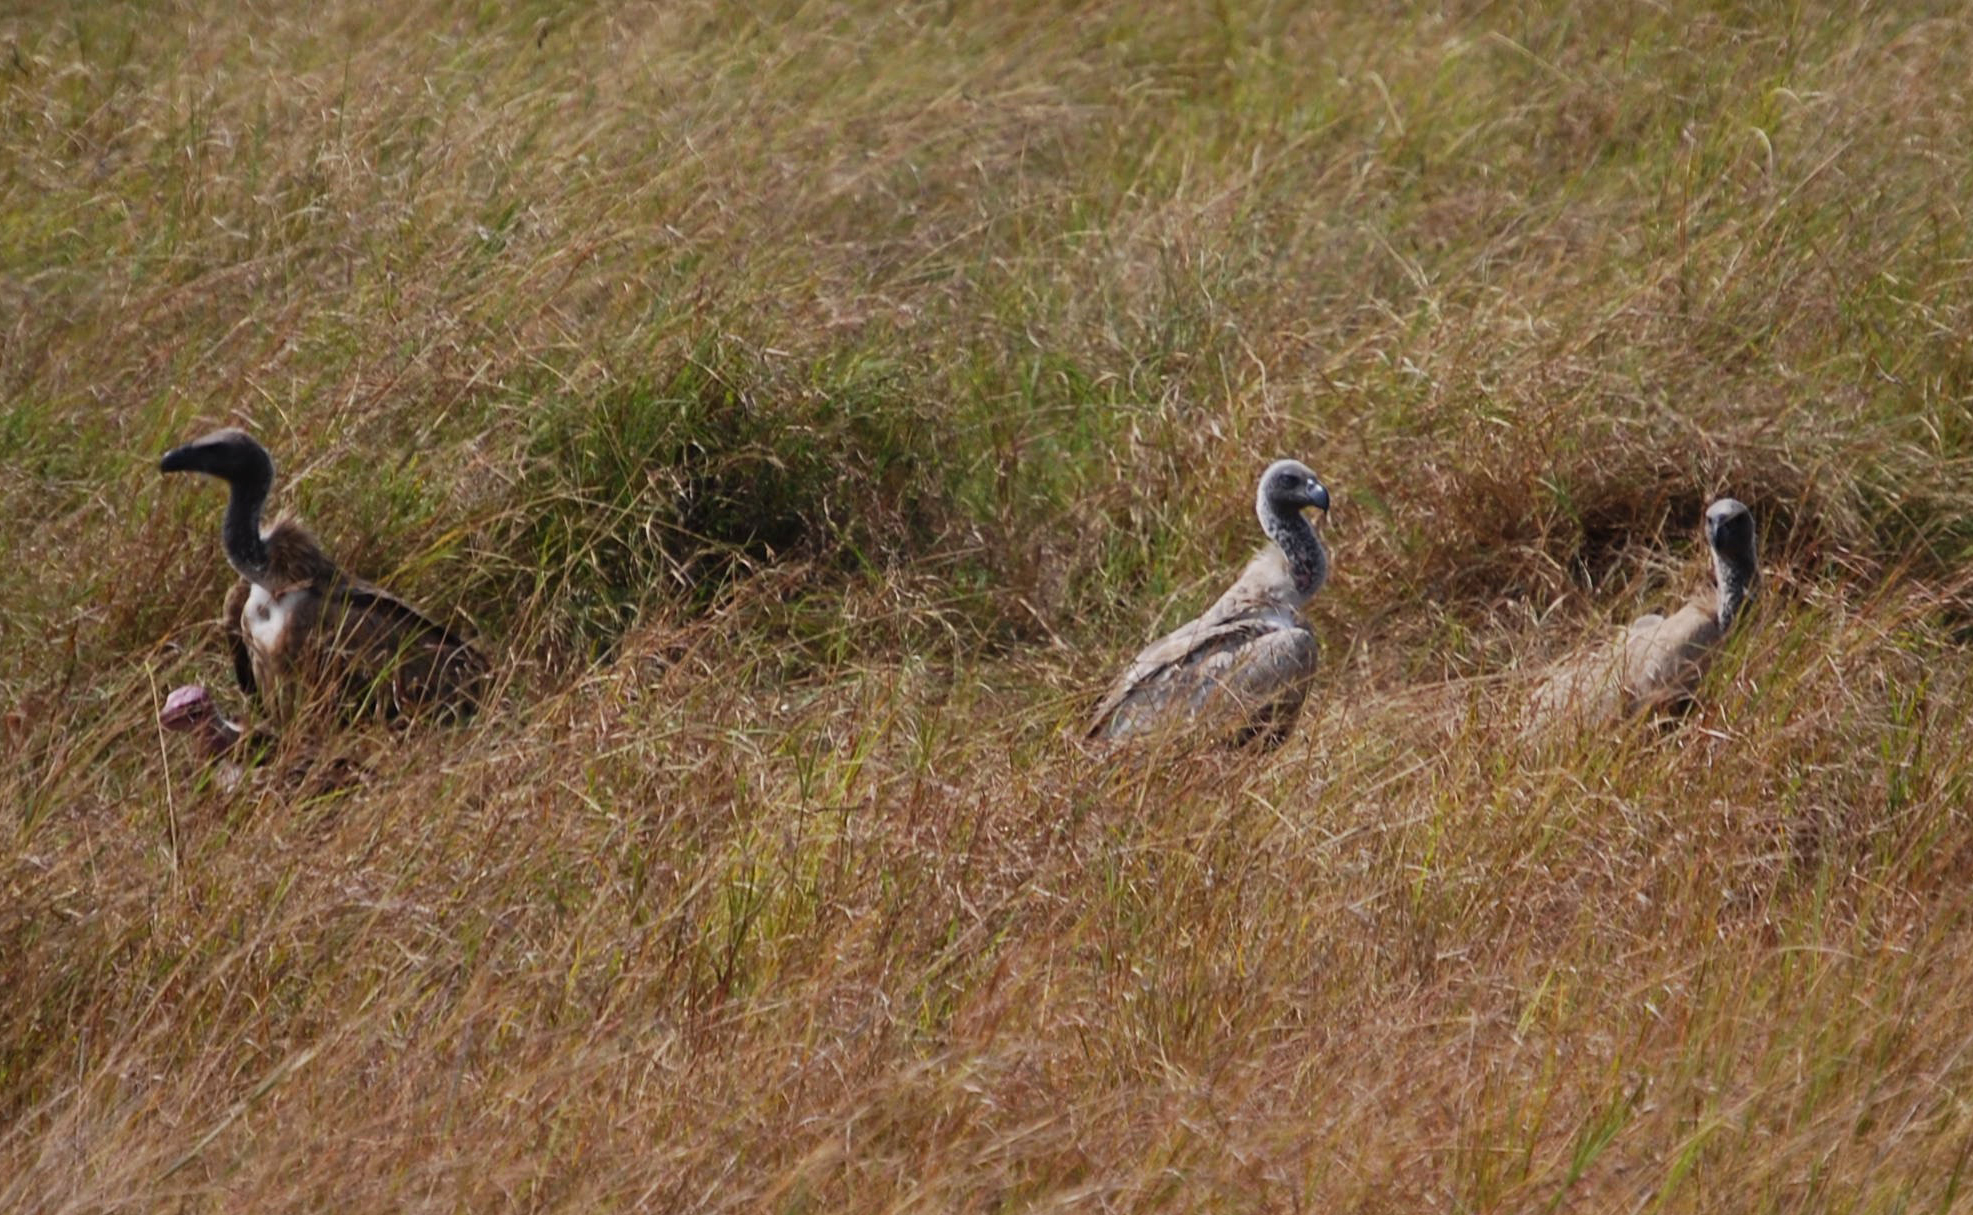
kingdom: Animalia
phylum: Chordata
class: Aves
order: Accipitriformes
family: Accipitridae
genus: Gyps
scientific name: Gyps africanus
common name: White-backed vulture
